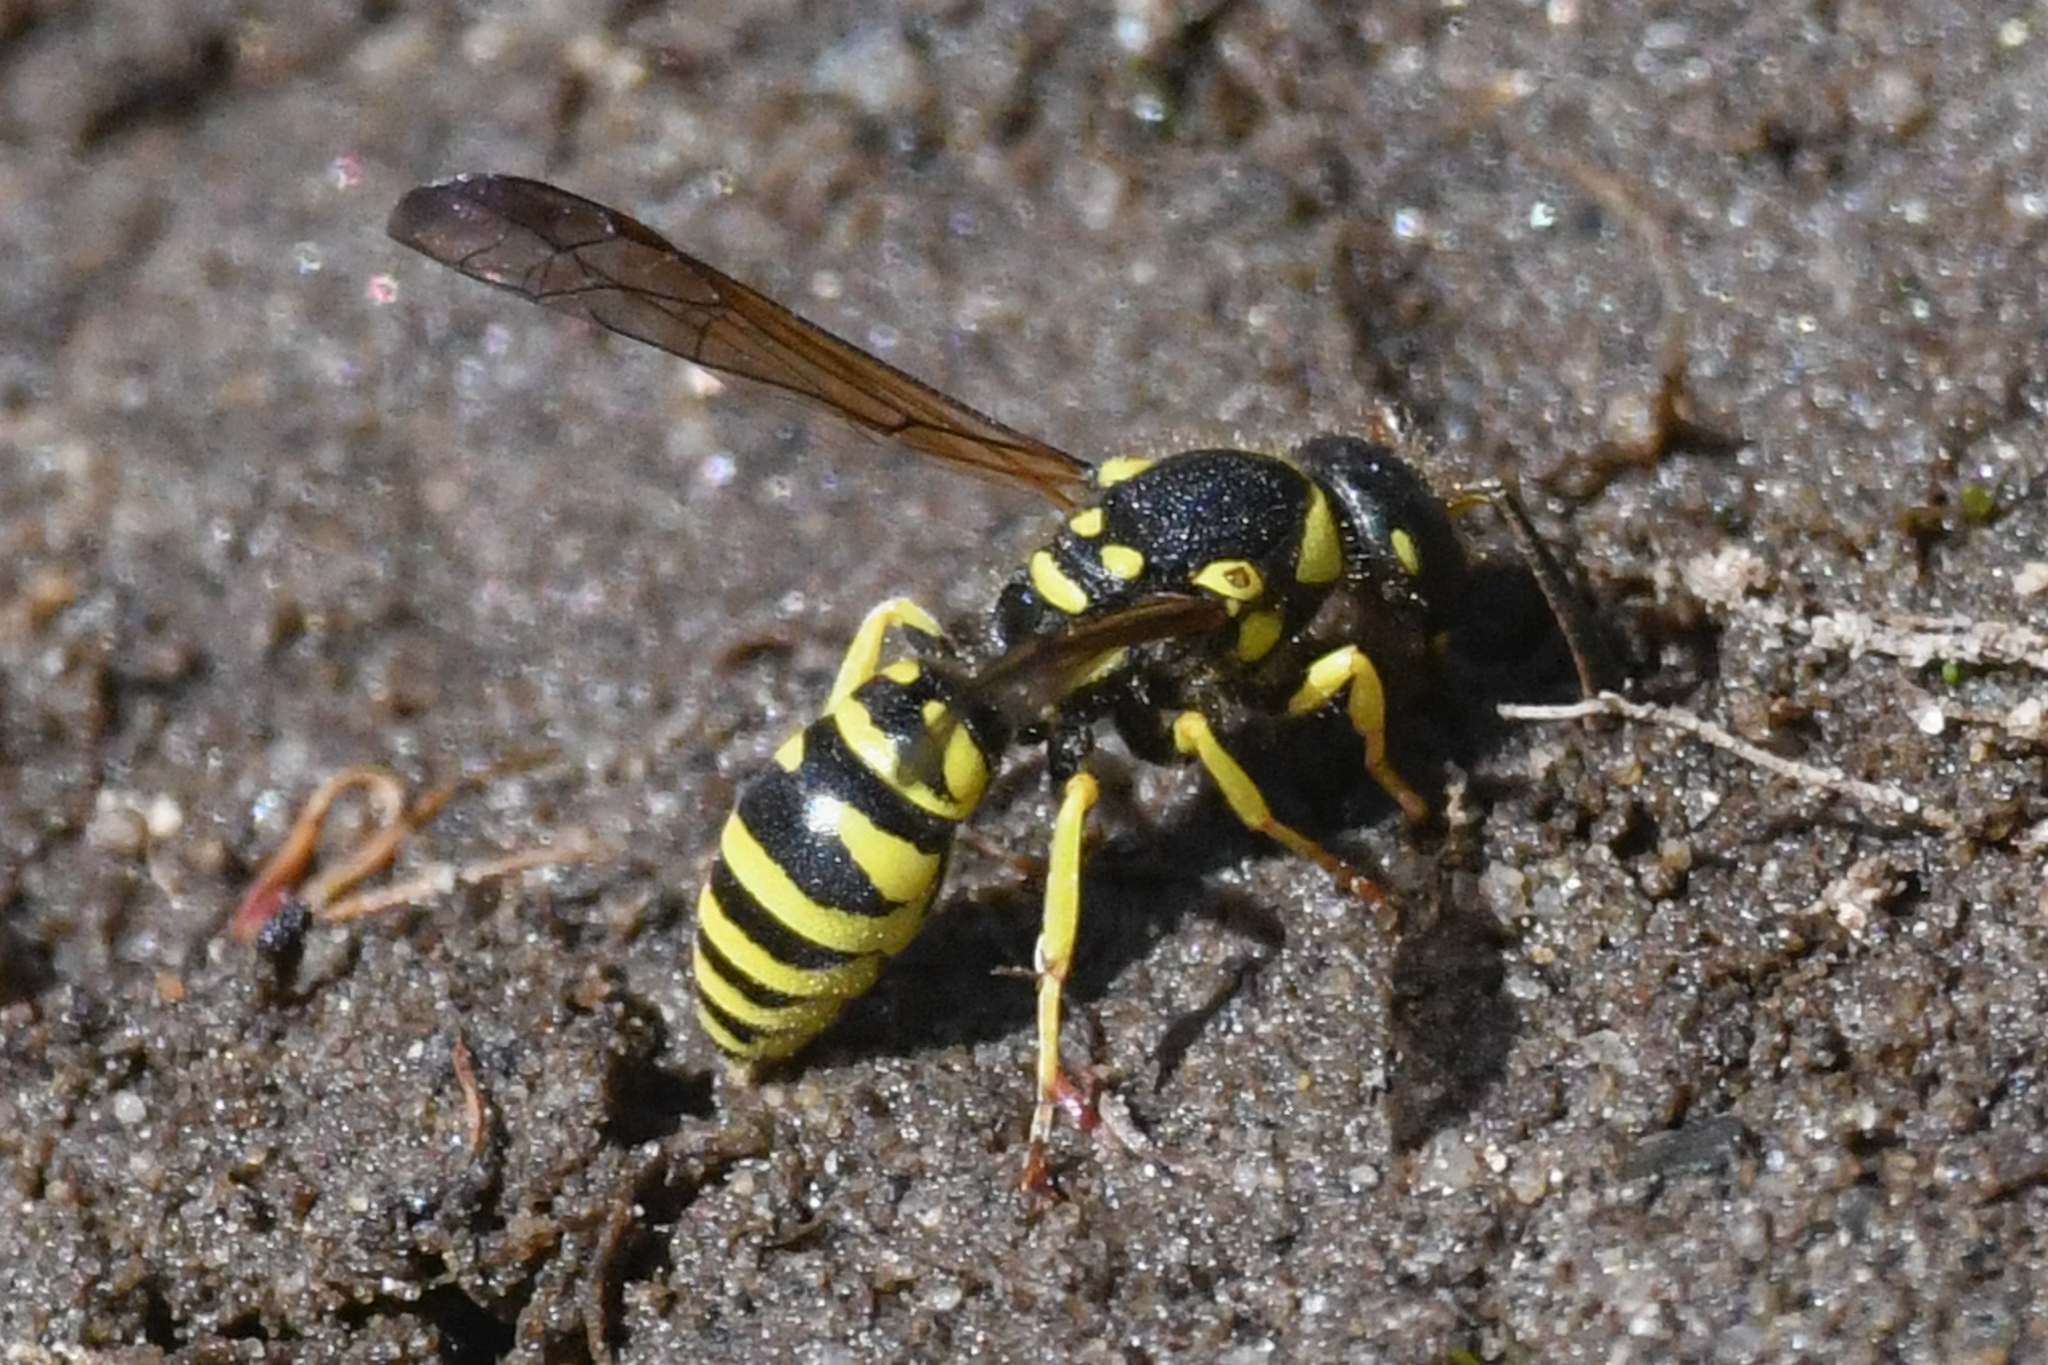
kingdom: Animalia
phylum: Arthropoda
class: Insecta
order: Hymenoptera
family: Vespidae
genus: Ancistrocerus
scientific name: Ancistrocerus adiabatus
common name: Bramble mason wasp
